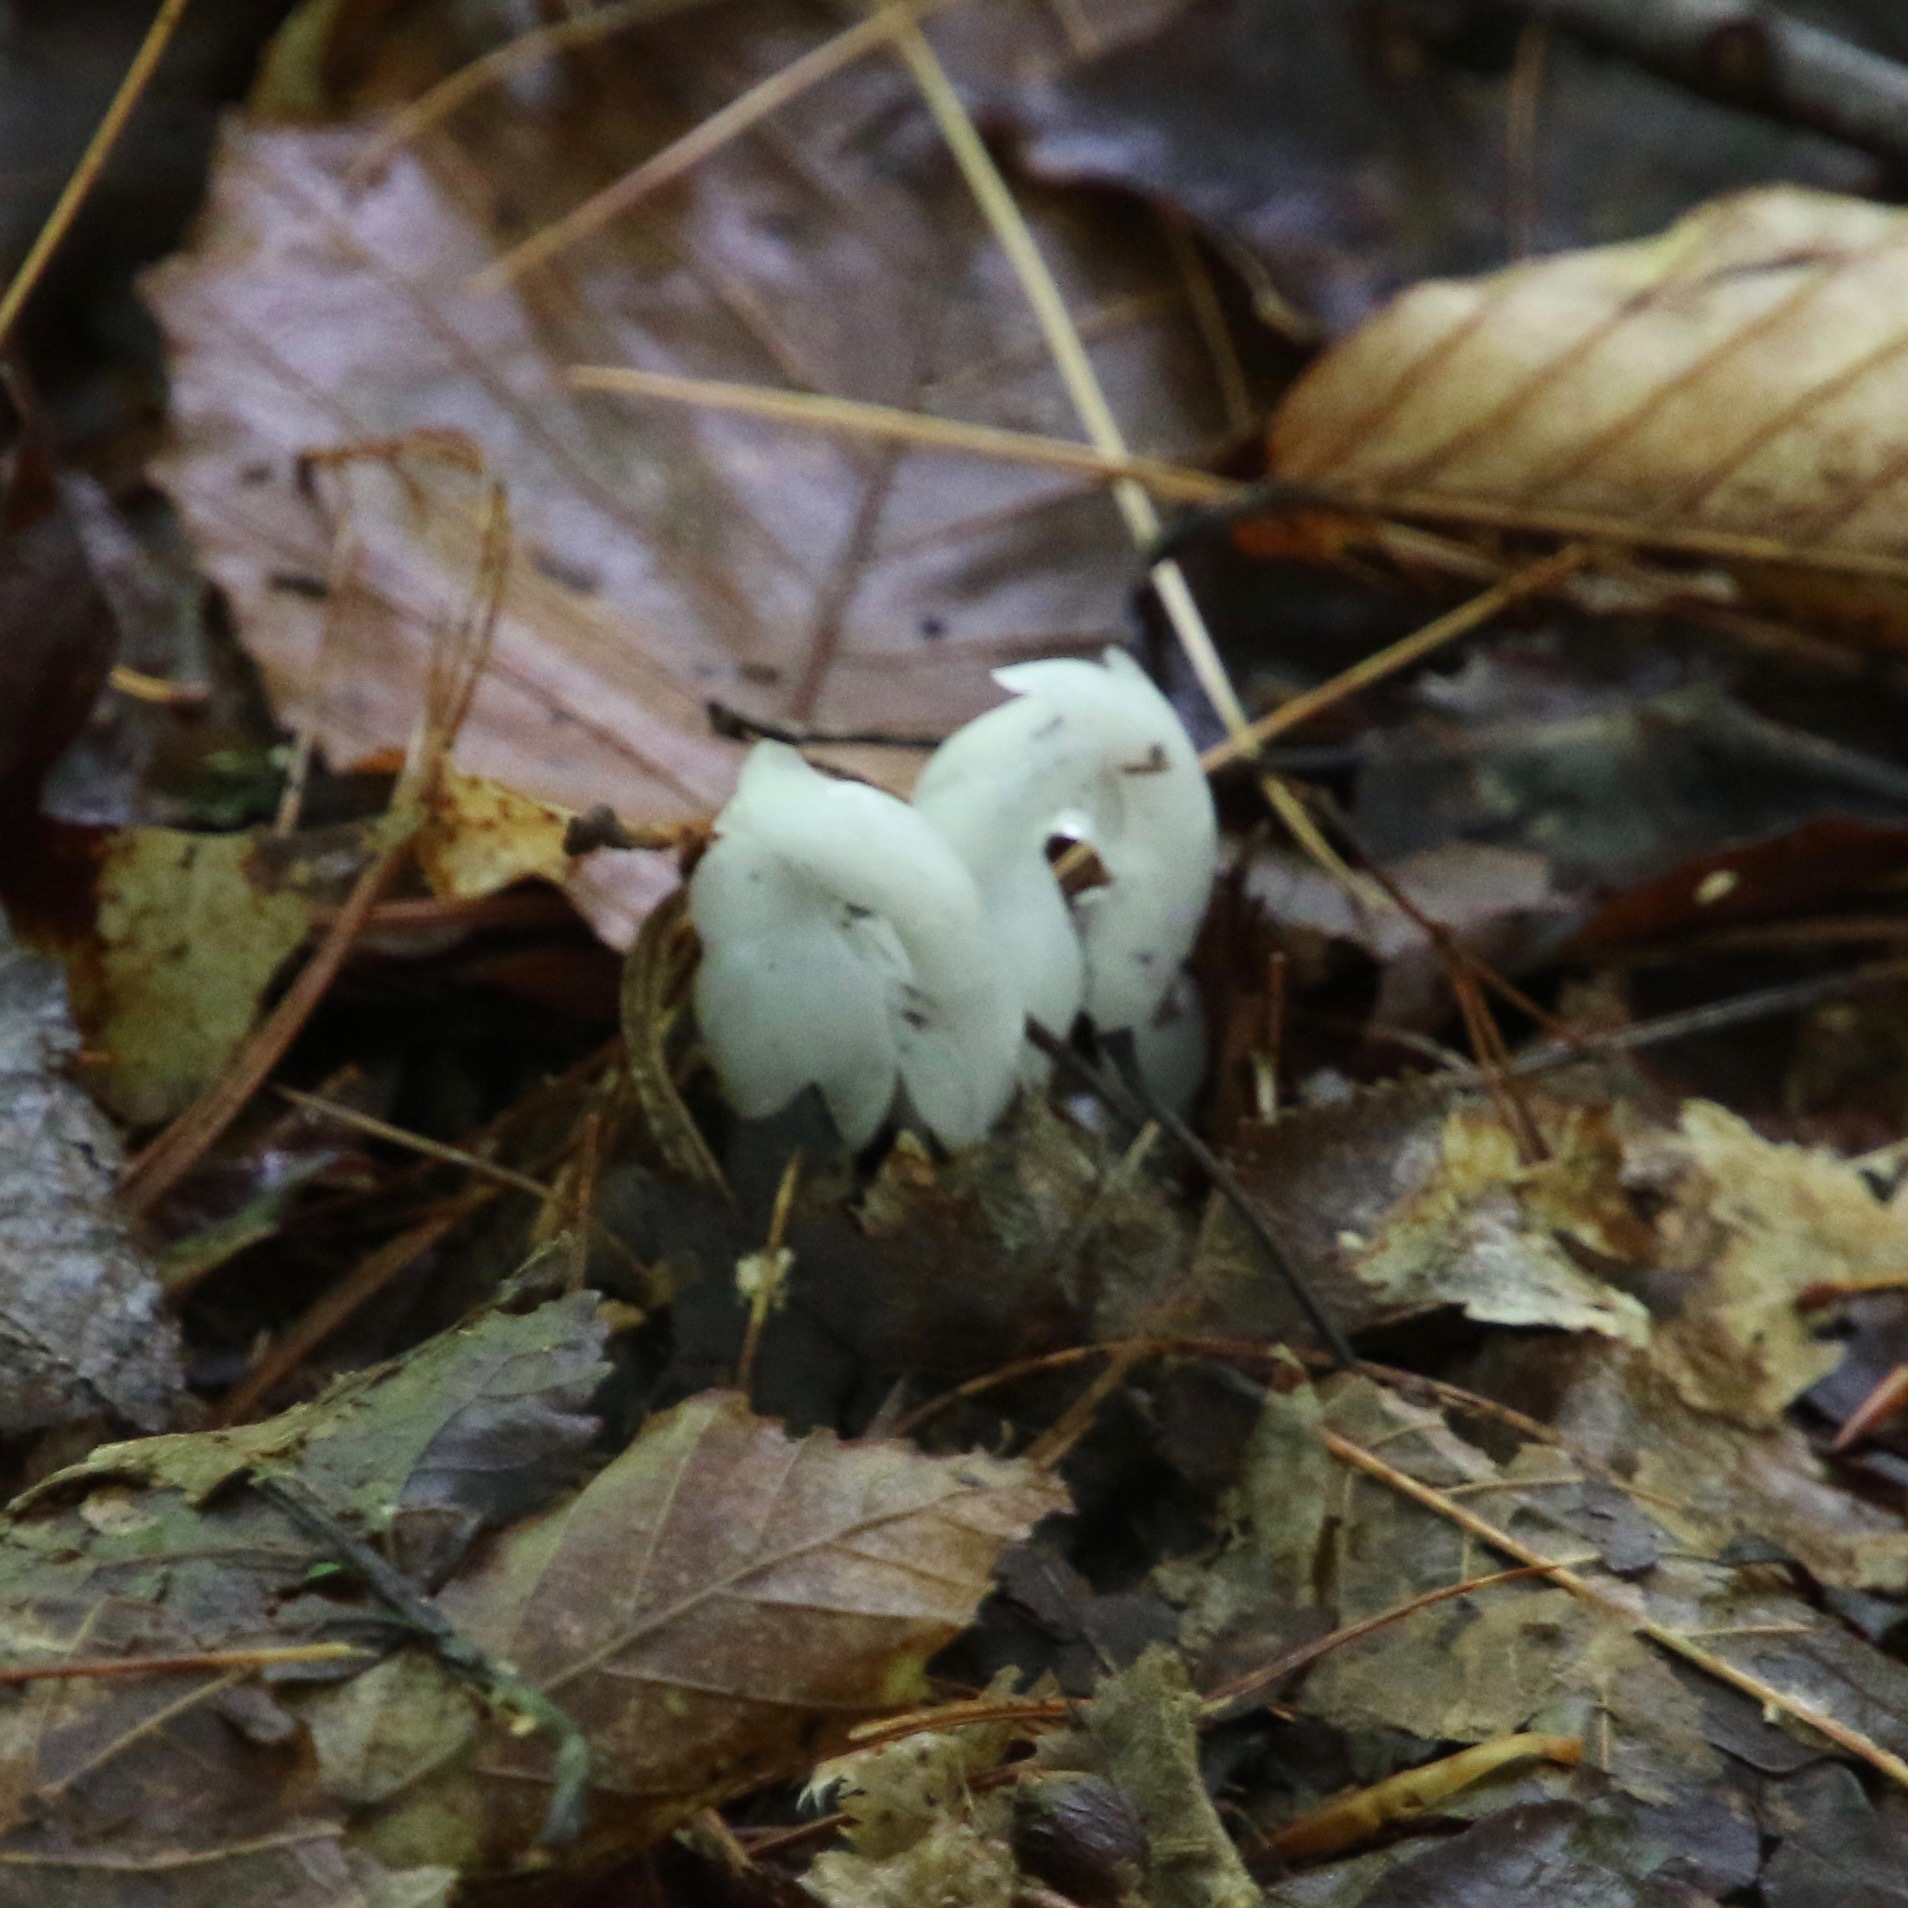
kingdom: Plantae
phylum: Tracheophyta
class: Magnoliopsida
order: Ericales
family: Ericaceae
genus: Monotropa
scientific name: Monotropa uniflora
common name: Convulsion root
